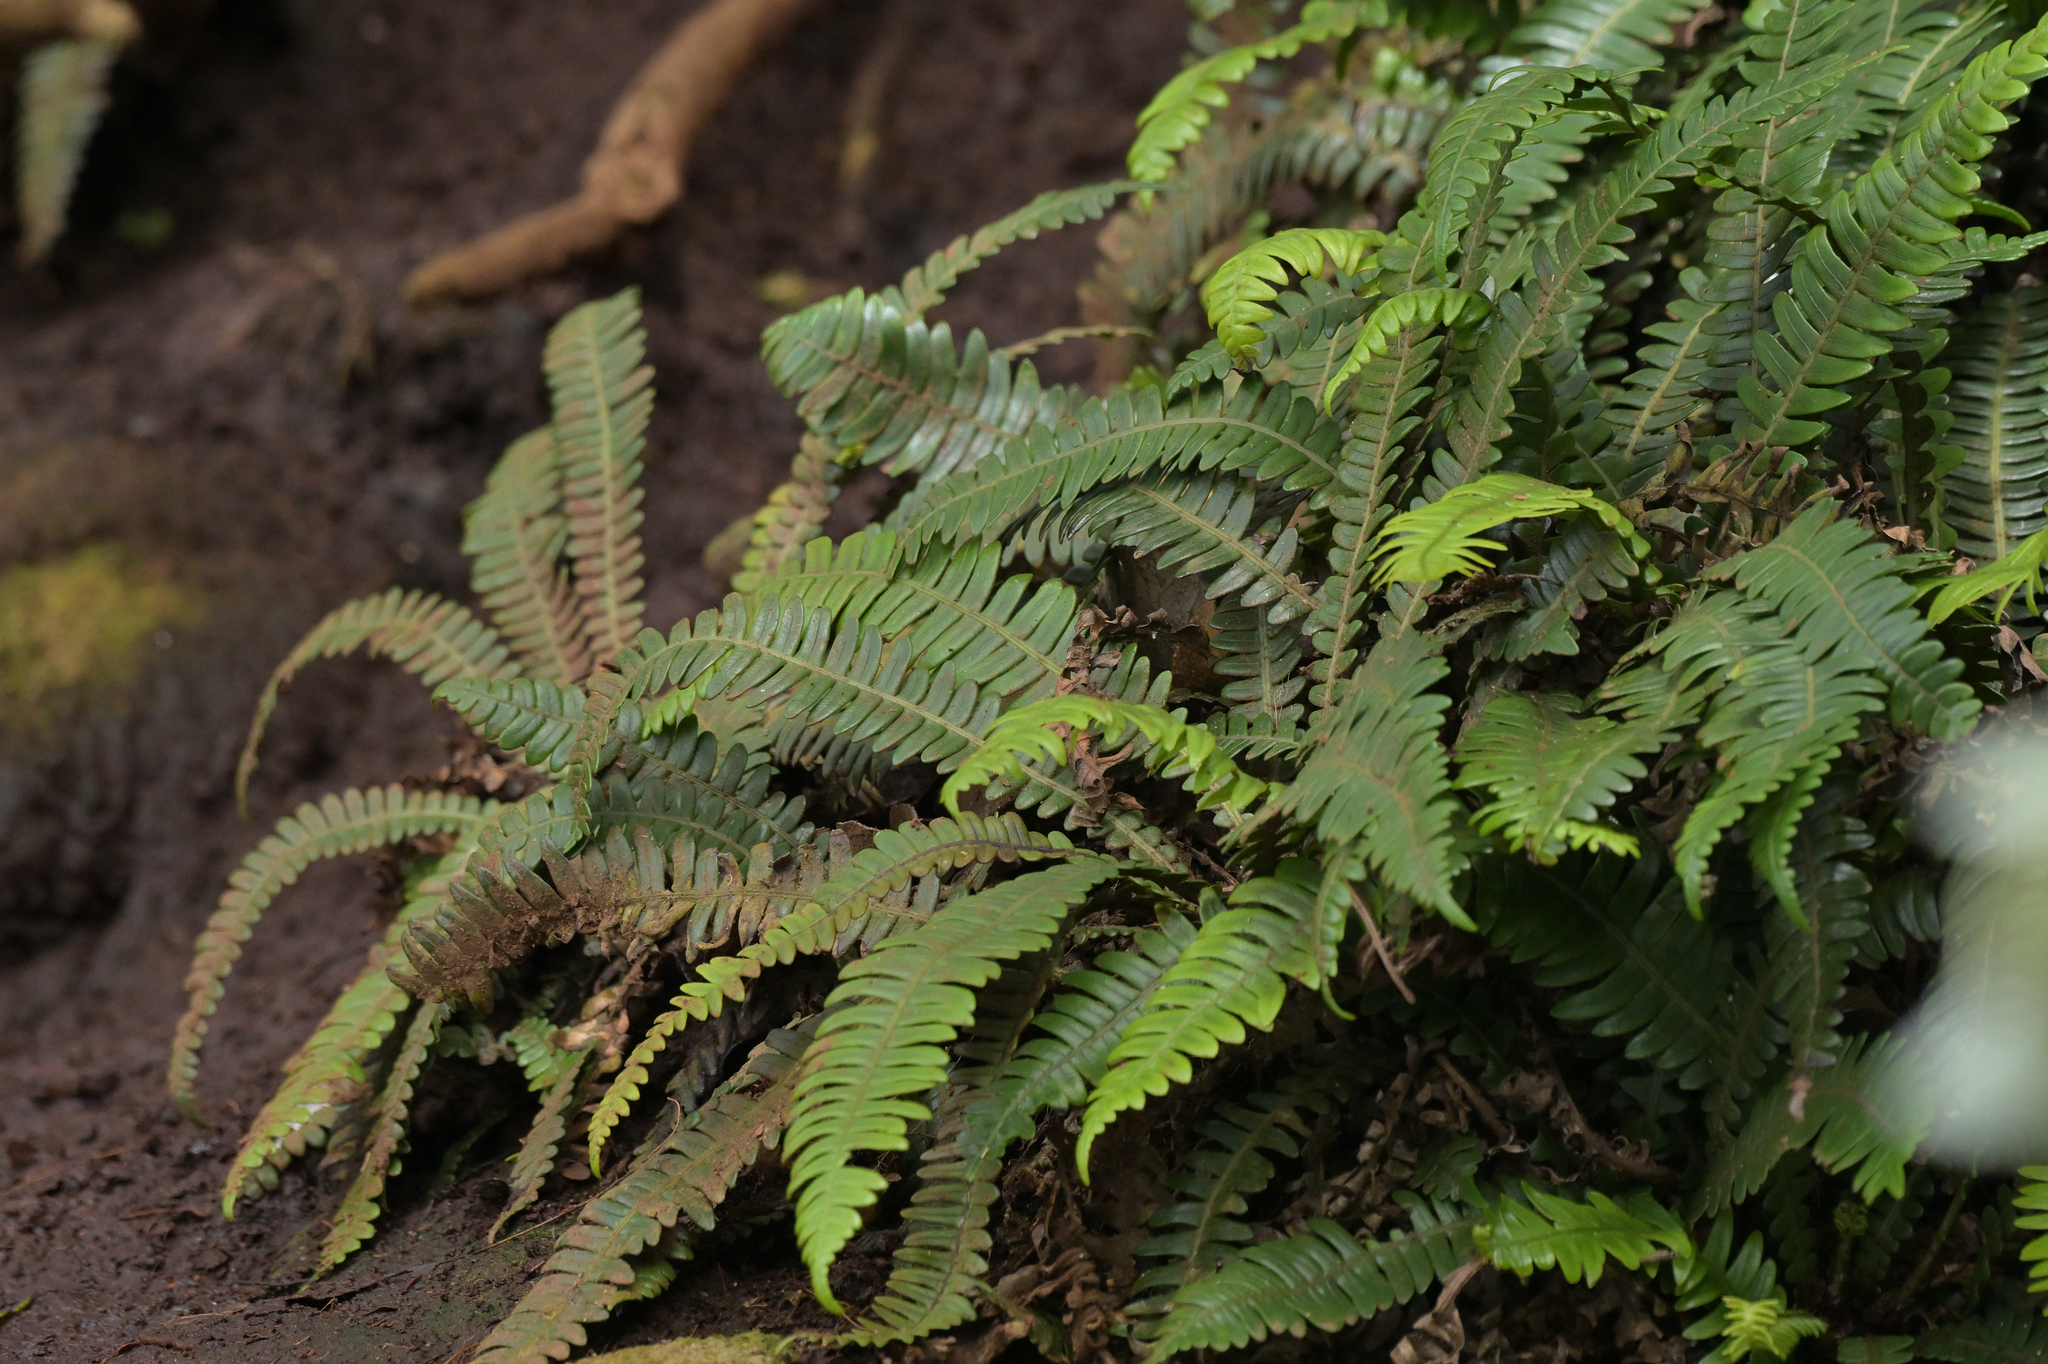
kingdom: Plantae
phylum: Tracheophyta
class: Polypodiopsida
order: Polypodiales
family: Blechnaceae
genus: Austroblechnum
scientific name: Austroblechnum durum
